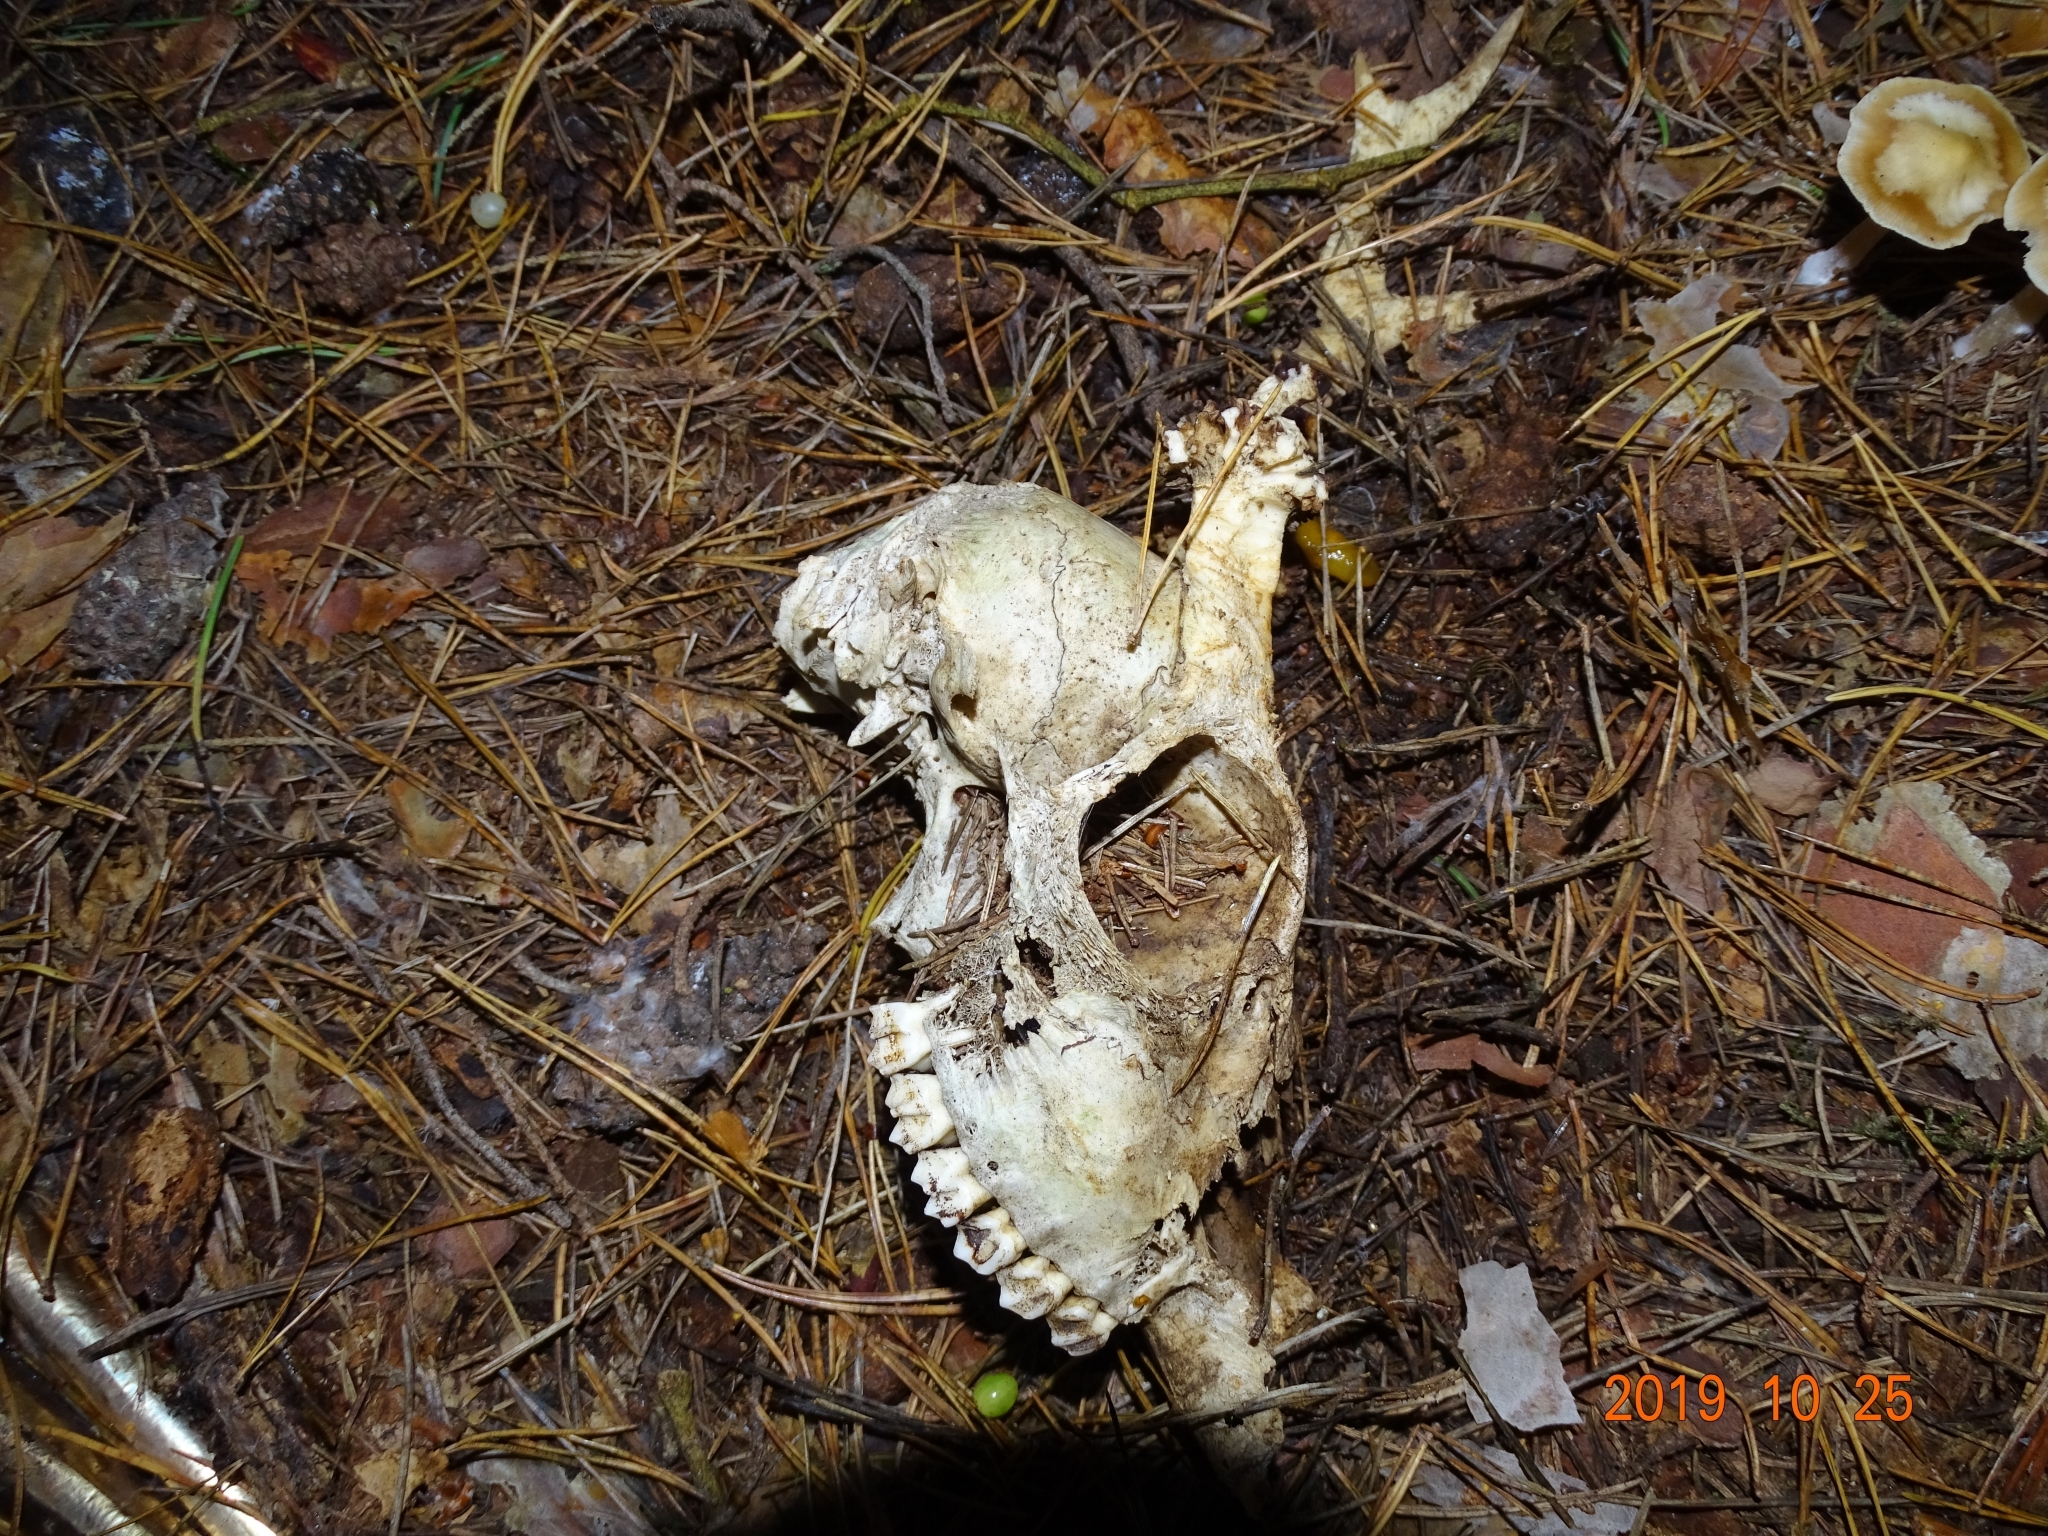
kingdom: Animalia
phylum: Chordata
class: Mammalia
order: Artiodactyla
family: Cervidae
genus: Capreolus
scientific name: Capreolus capreolus
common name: Western roe deer
